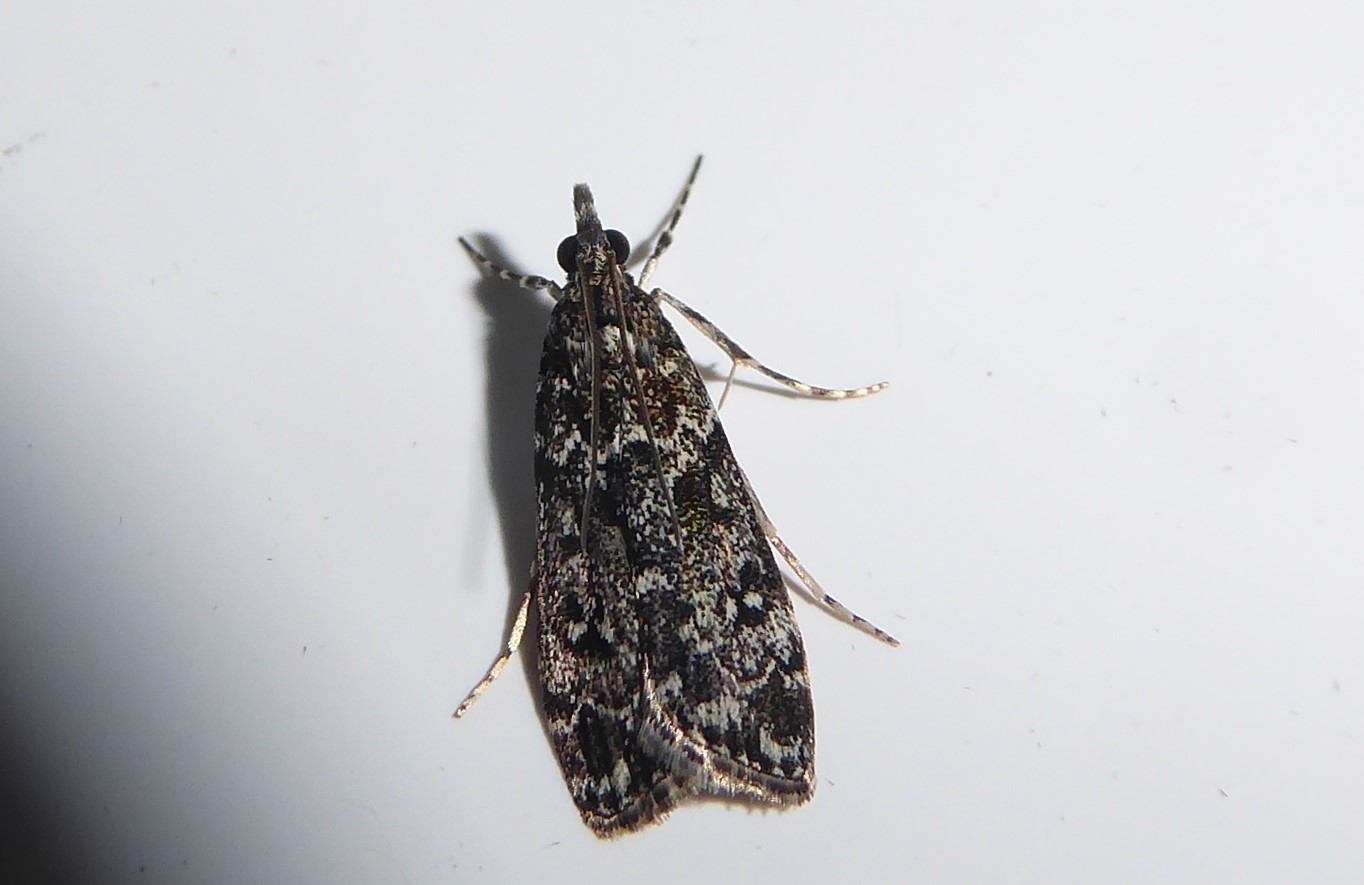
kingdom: Animalia
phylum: Arthropoda
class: Insecta
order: Lepidoptera
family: Crambidae
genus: Eudonia
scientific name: Eudonia philerga
